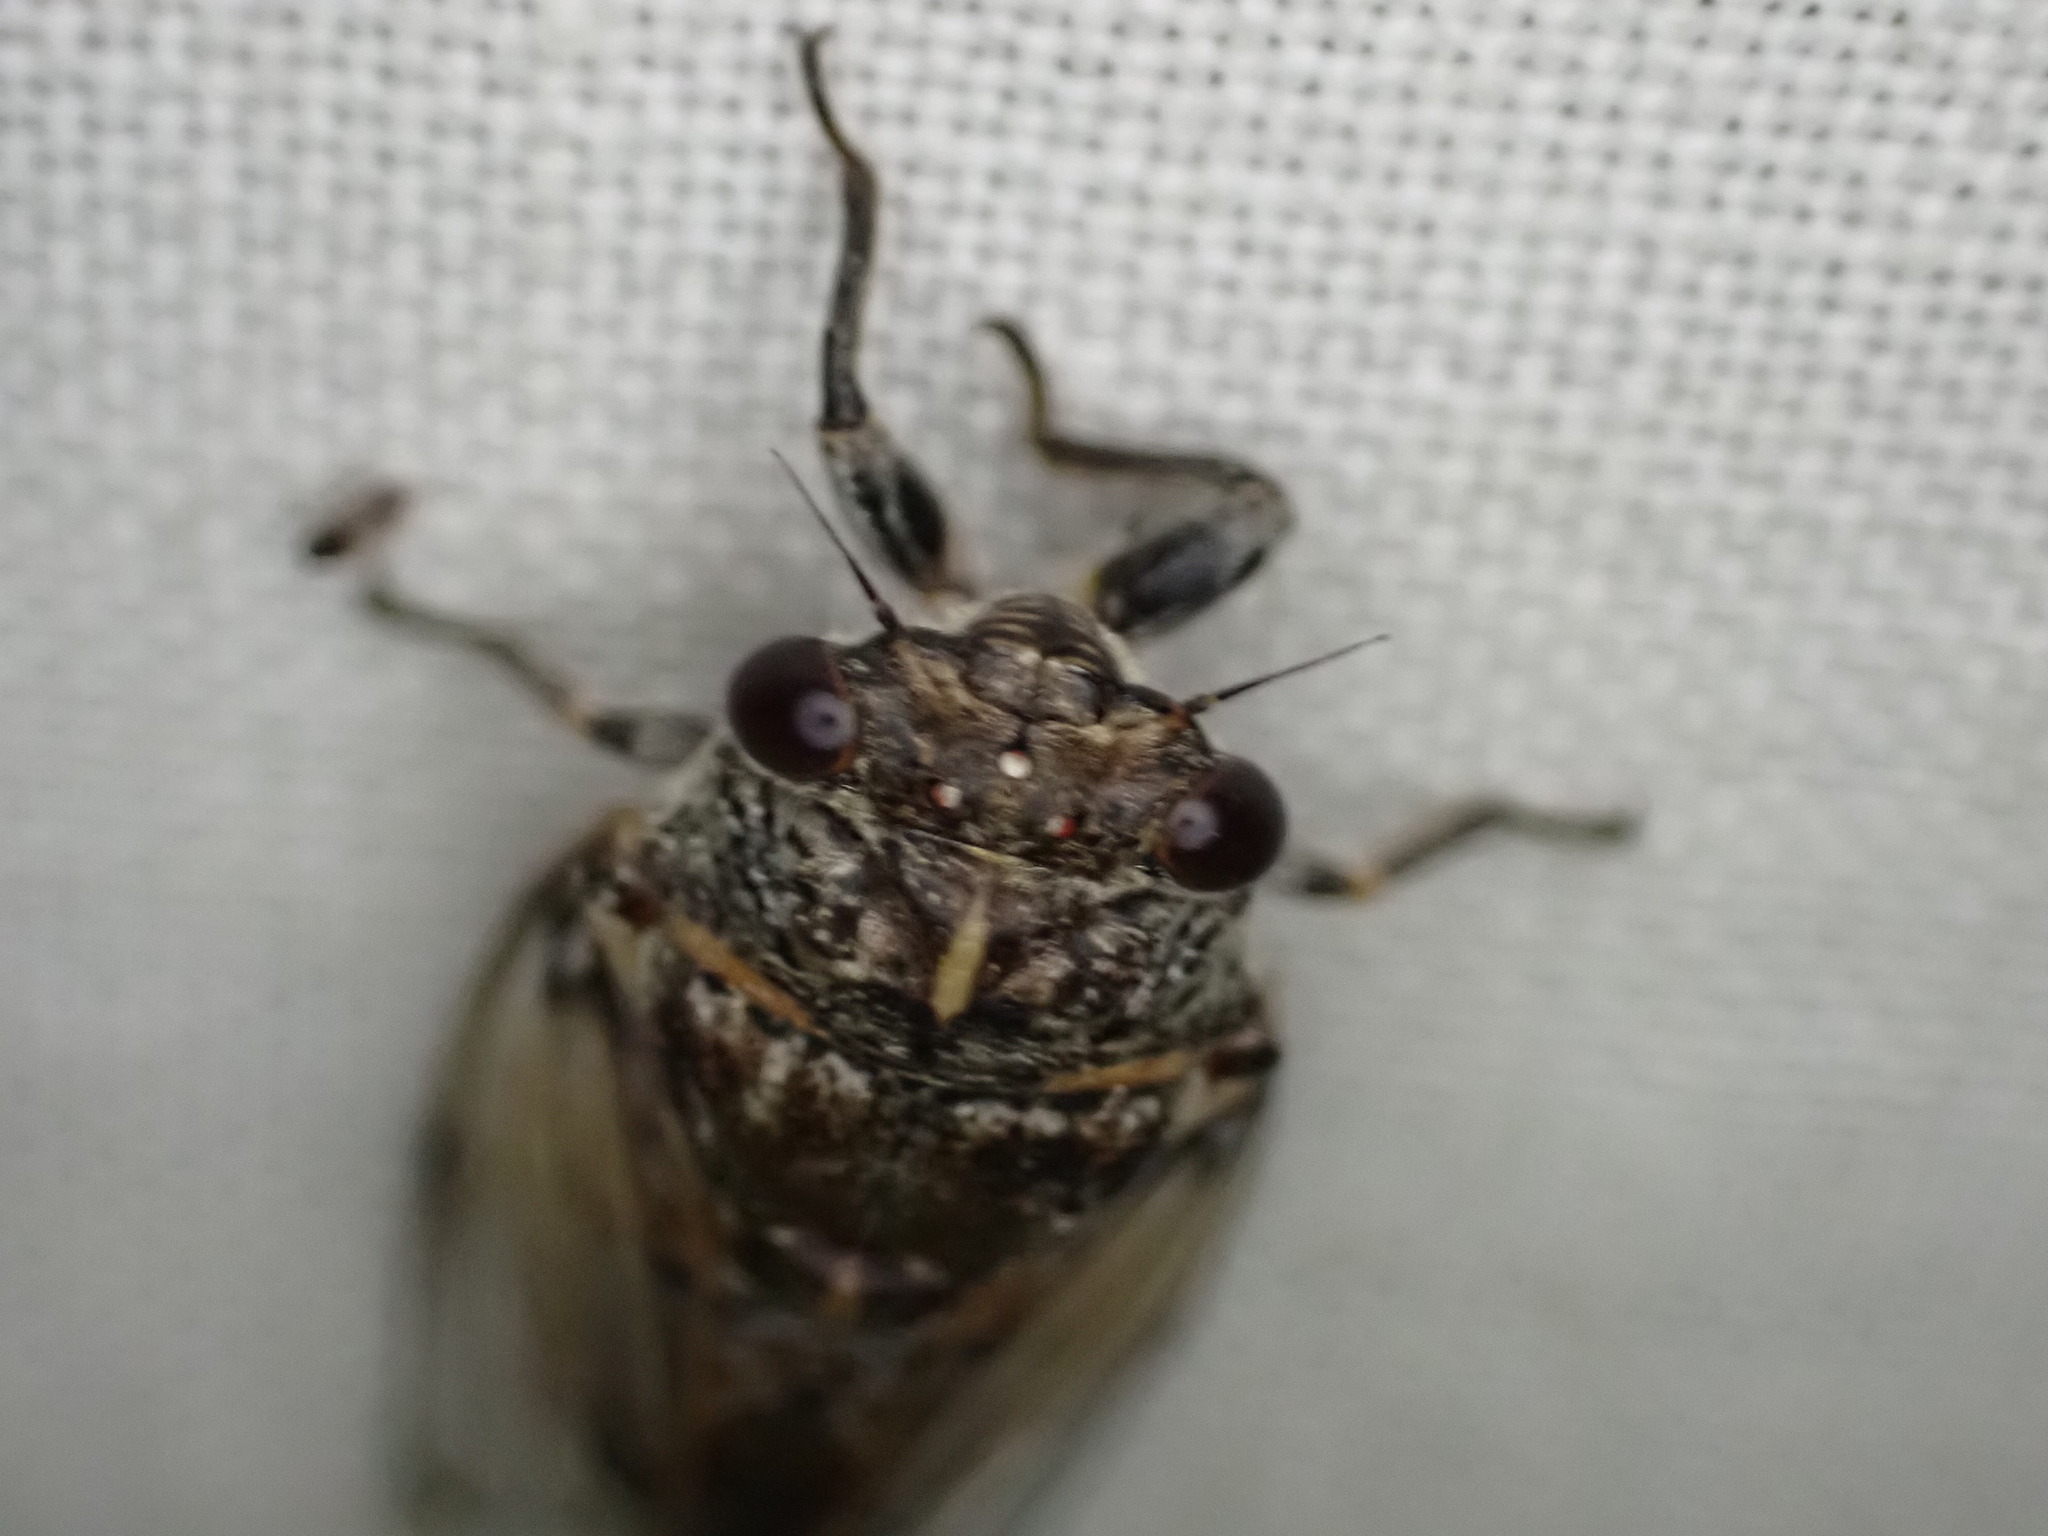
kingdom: Animalia
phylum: Arthropoda
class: Insecta
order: Hemiptera
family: Cicadidae
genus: Cicadatra
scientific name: Cicadatra atra
